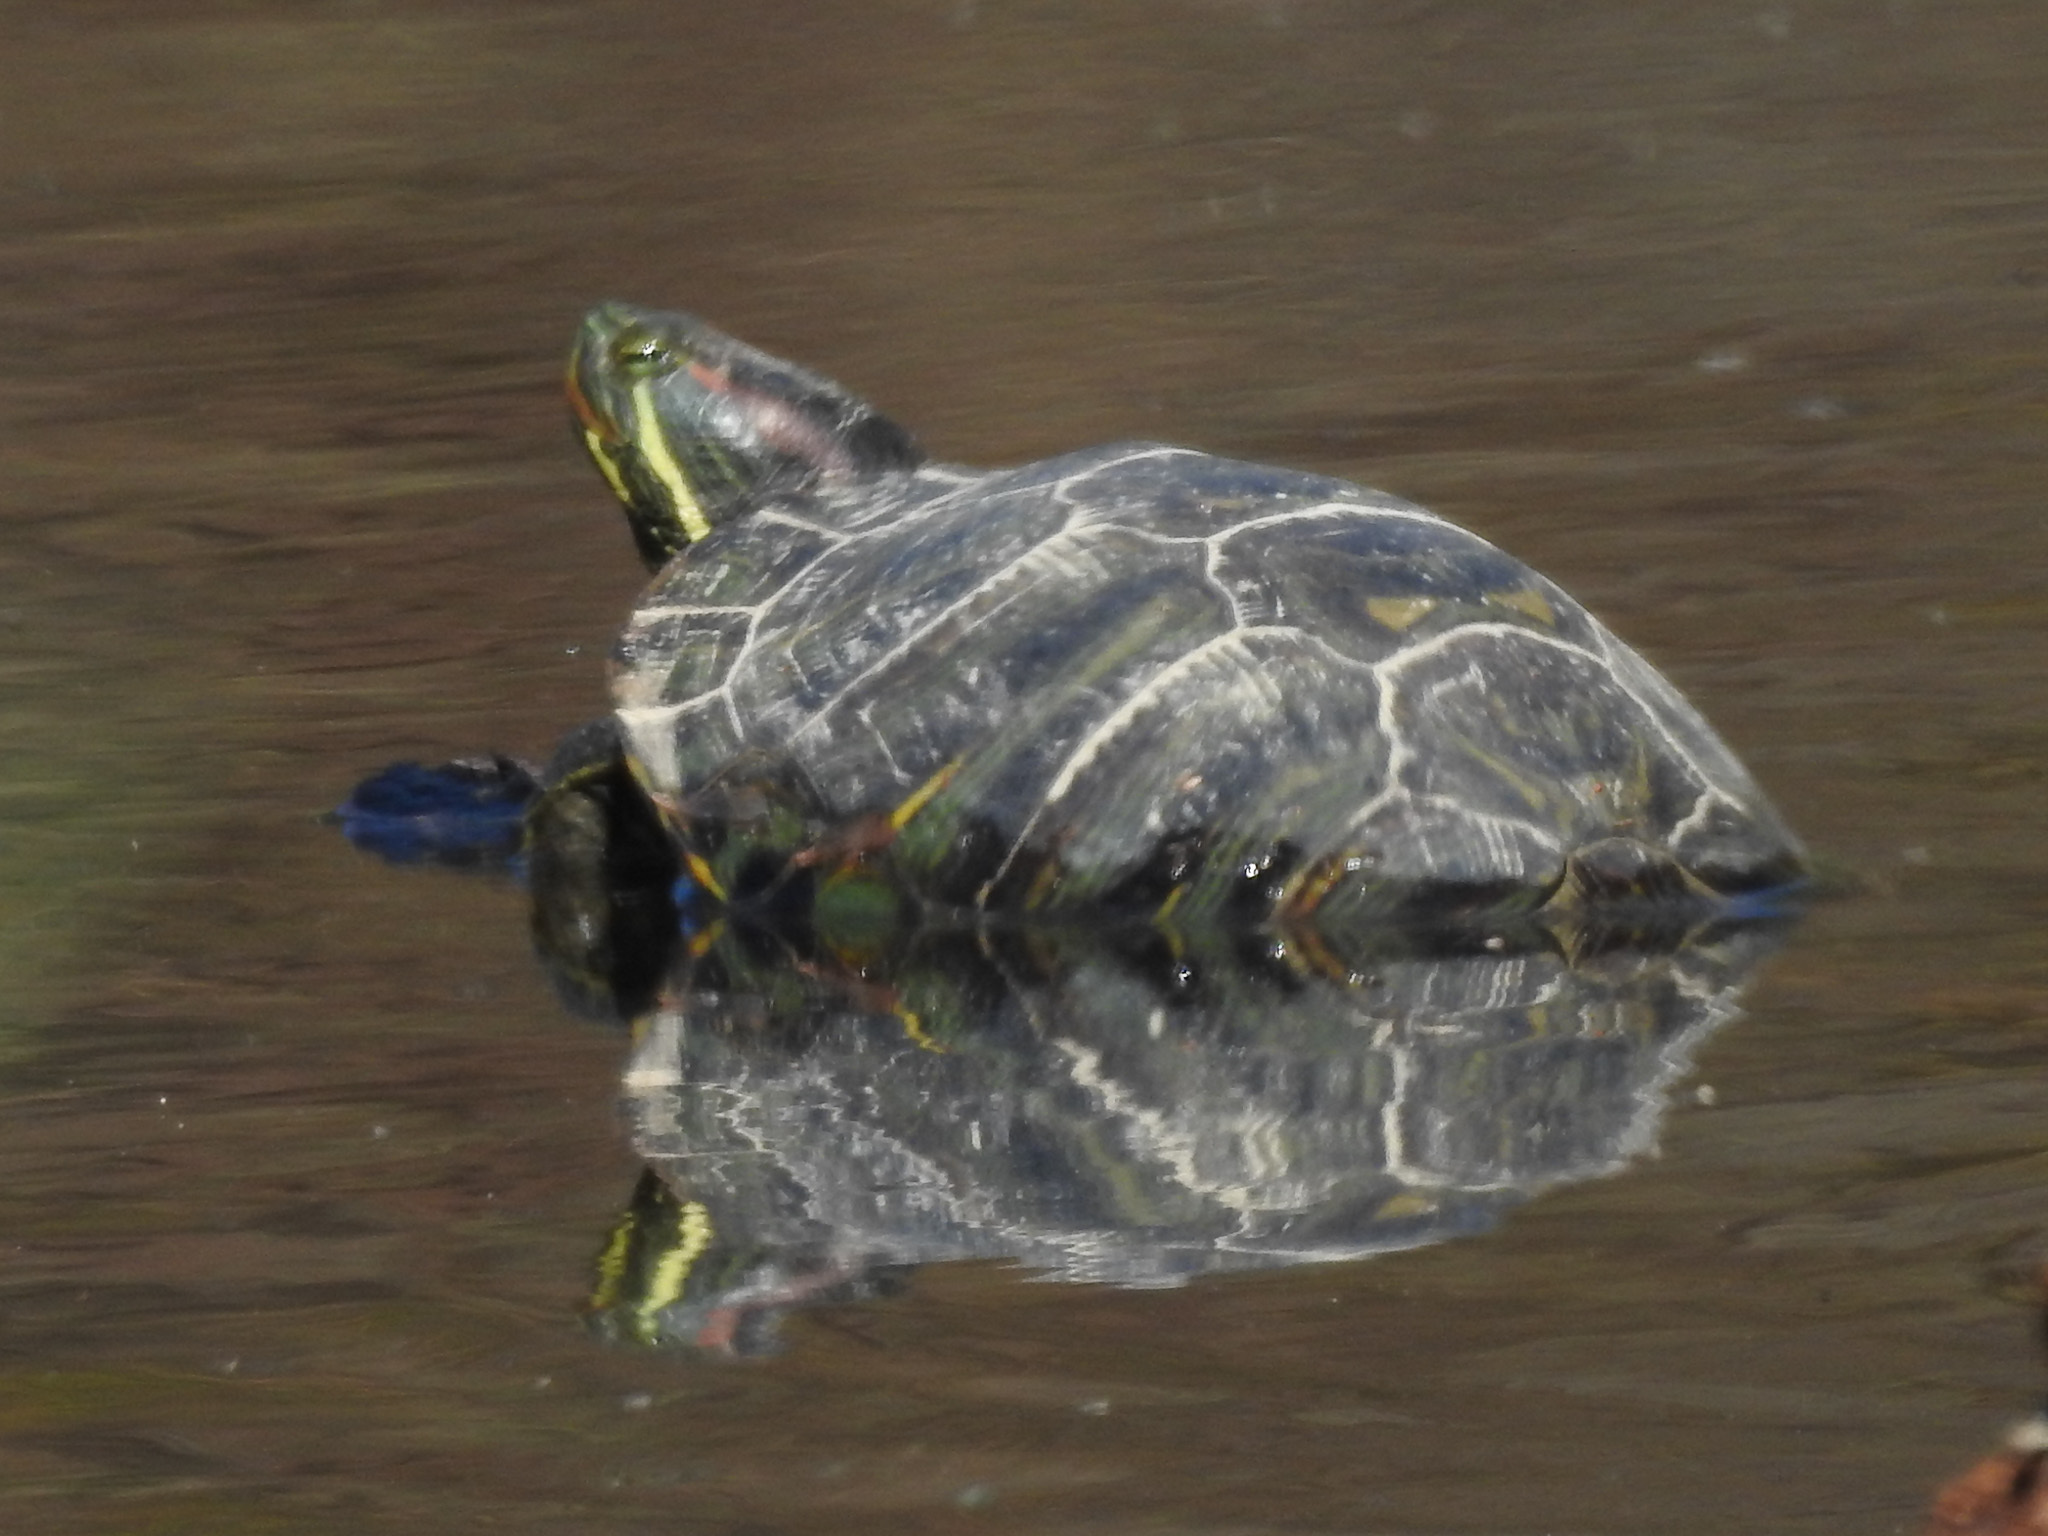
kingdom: Animalia
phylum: Chordata
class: Testudines
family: Emydidae
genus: Trachemys
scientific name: Trachemys scripta
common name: Slider
